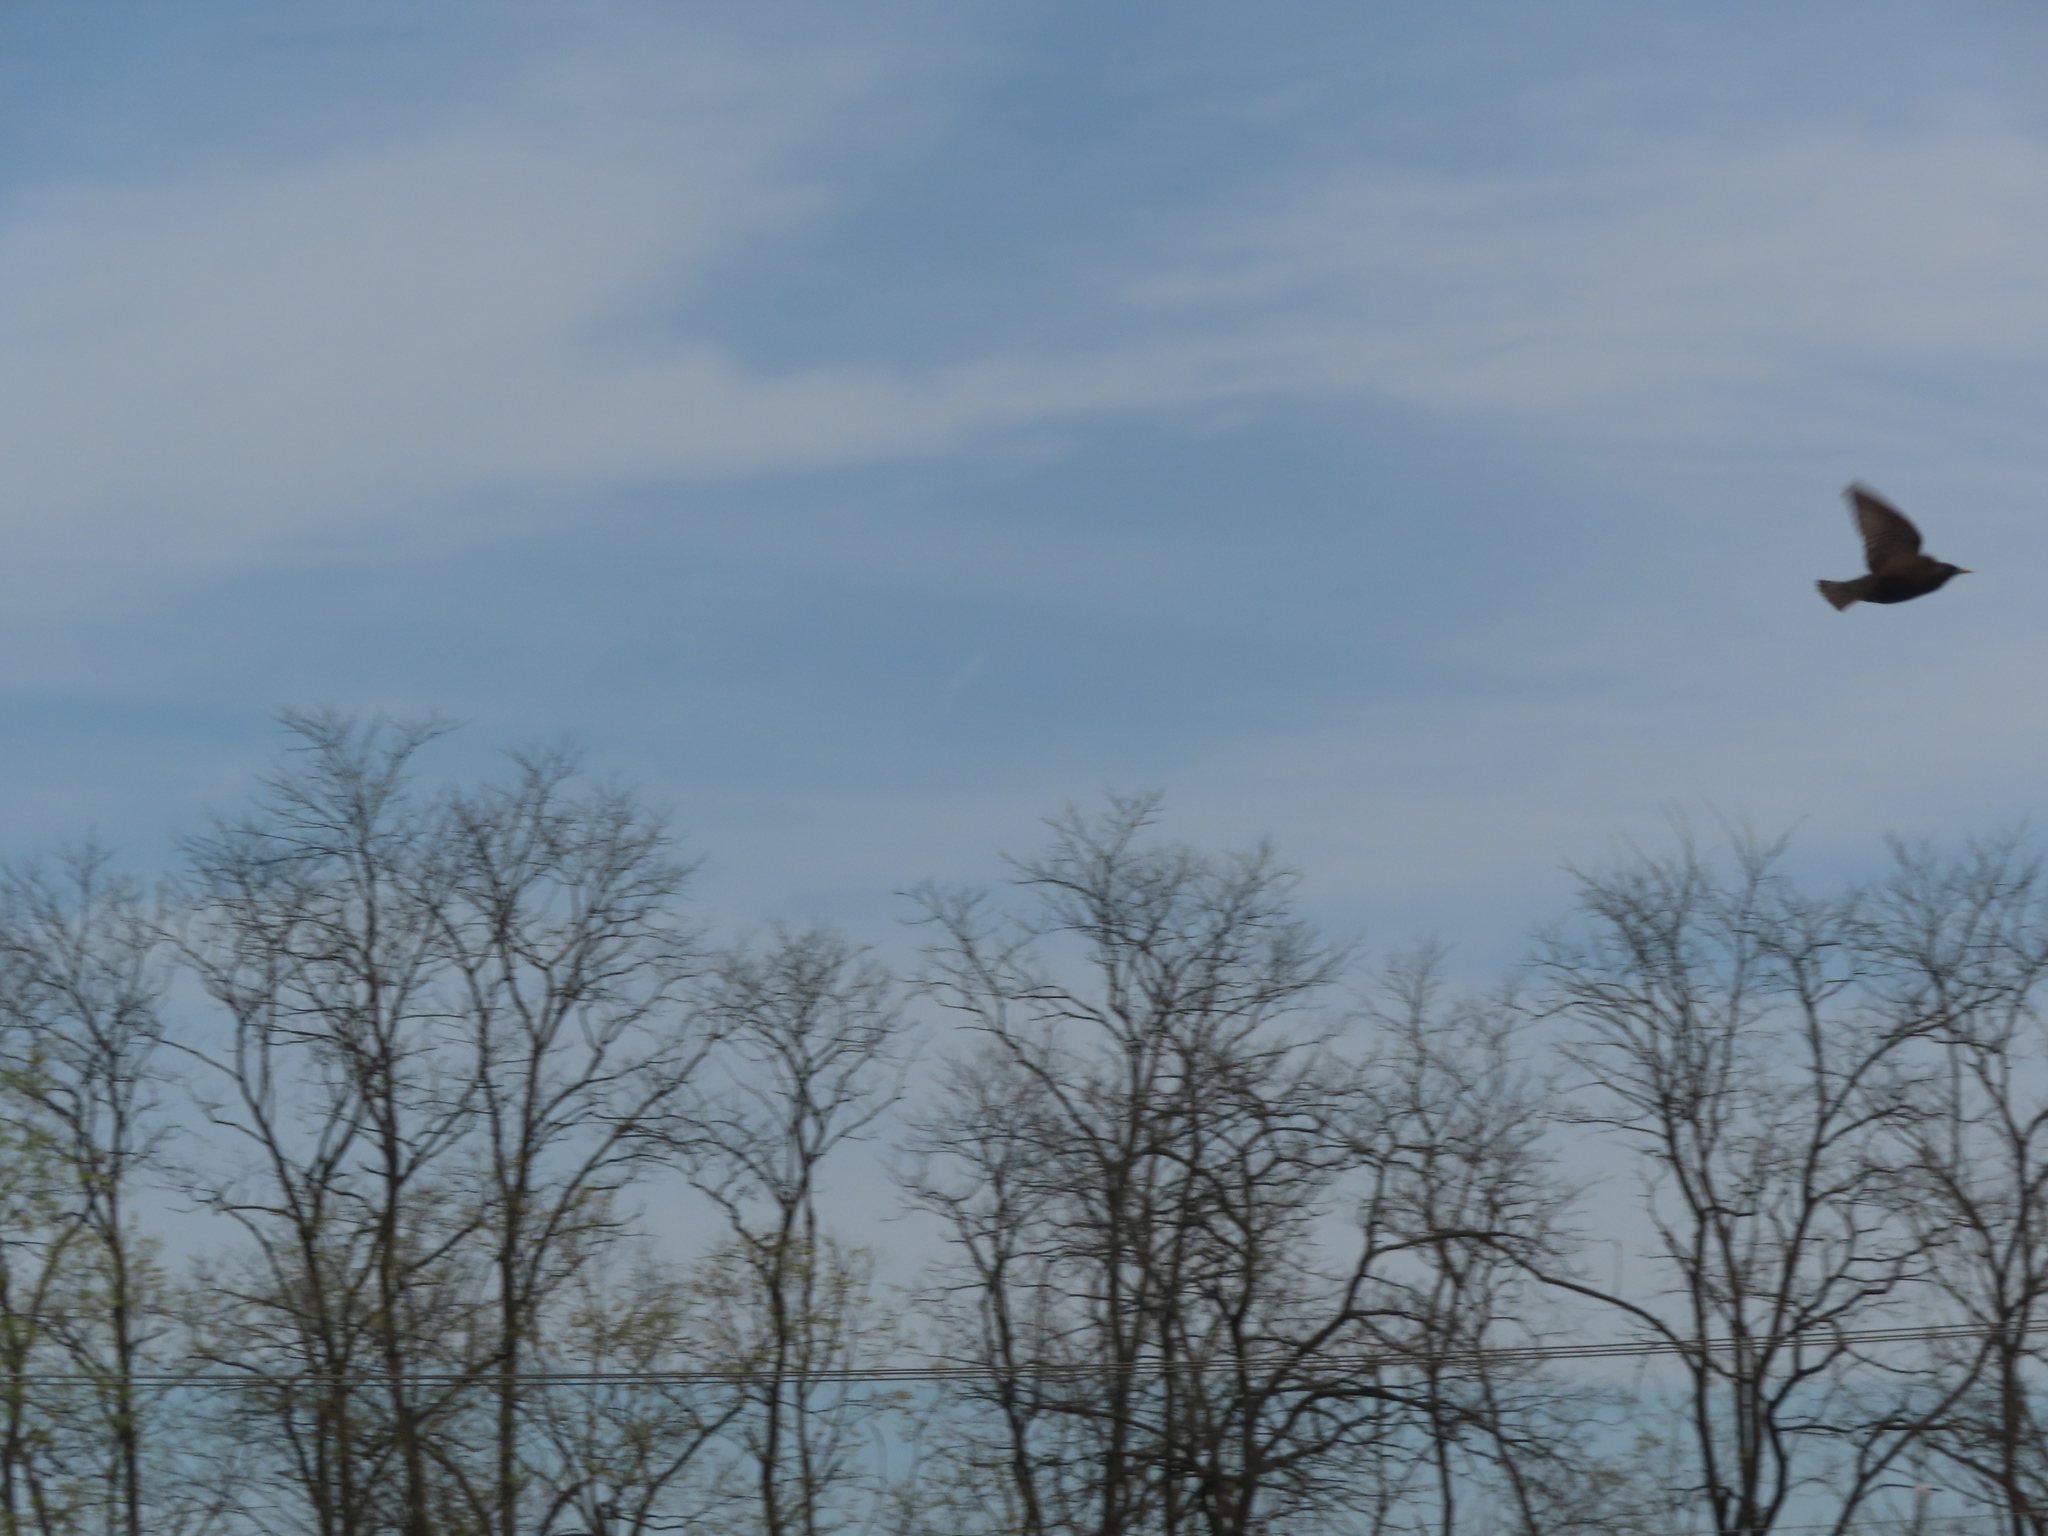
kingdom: Animalia
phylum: Chordata
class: Aves
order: Passeriformes
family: Sturnidae
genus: Sturnus
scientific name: Sturnus vulgaris
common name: Common starling
